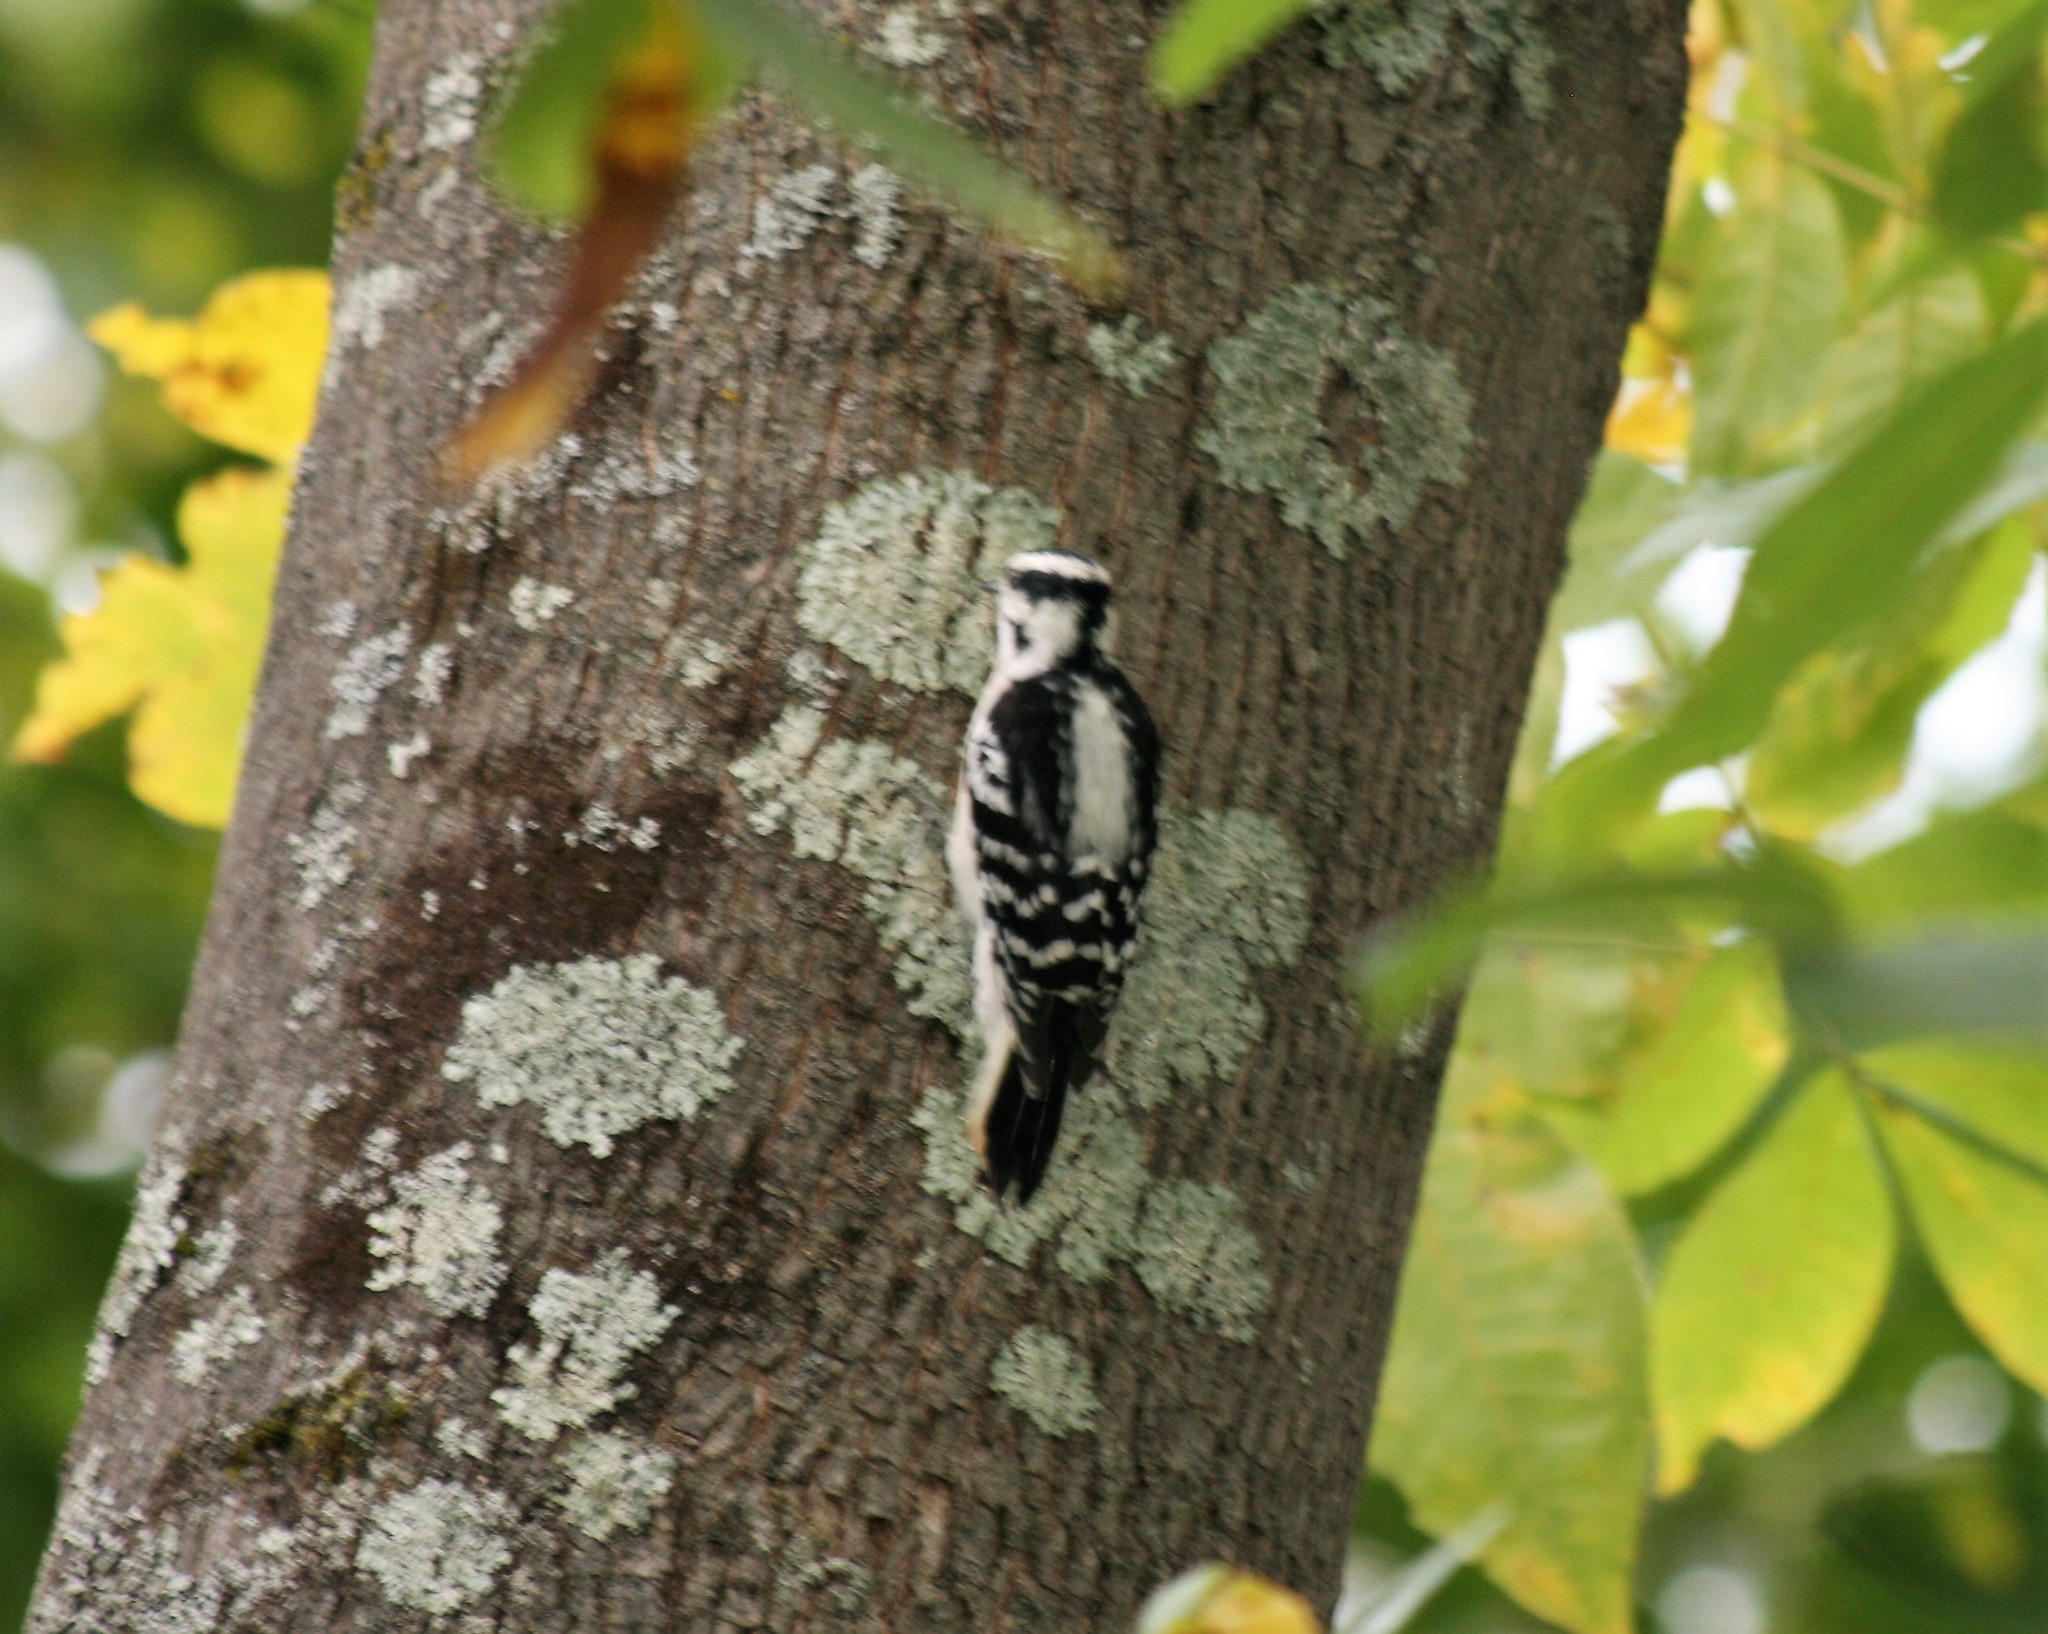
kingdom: Animalia
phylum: Chordata
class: Aves
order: Piciformes
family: Picidae
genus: Dryobates
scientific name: Dryobates pubescens
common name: Downy woodpecker
